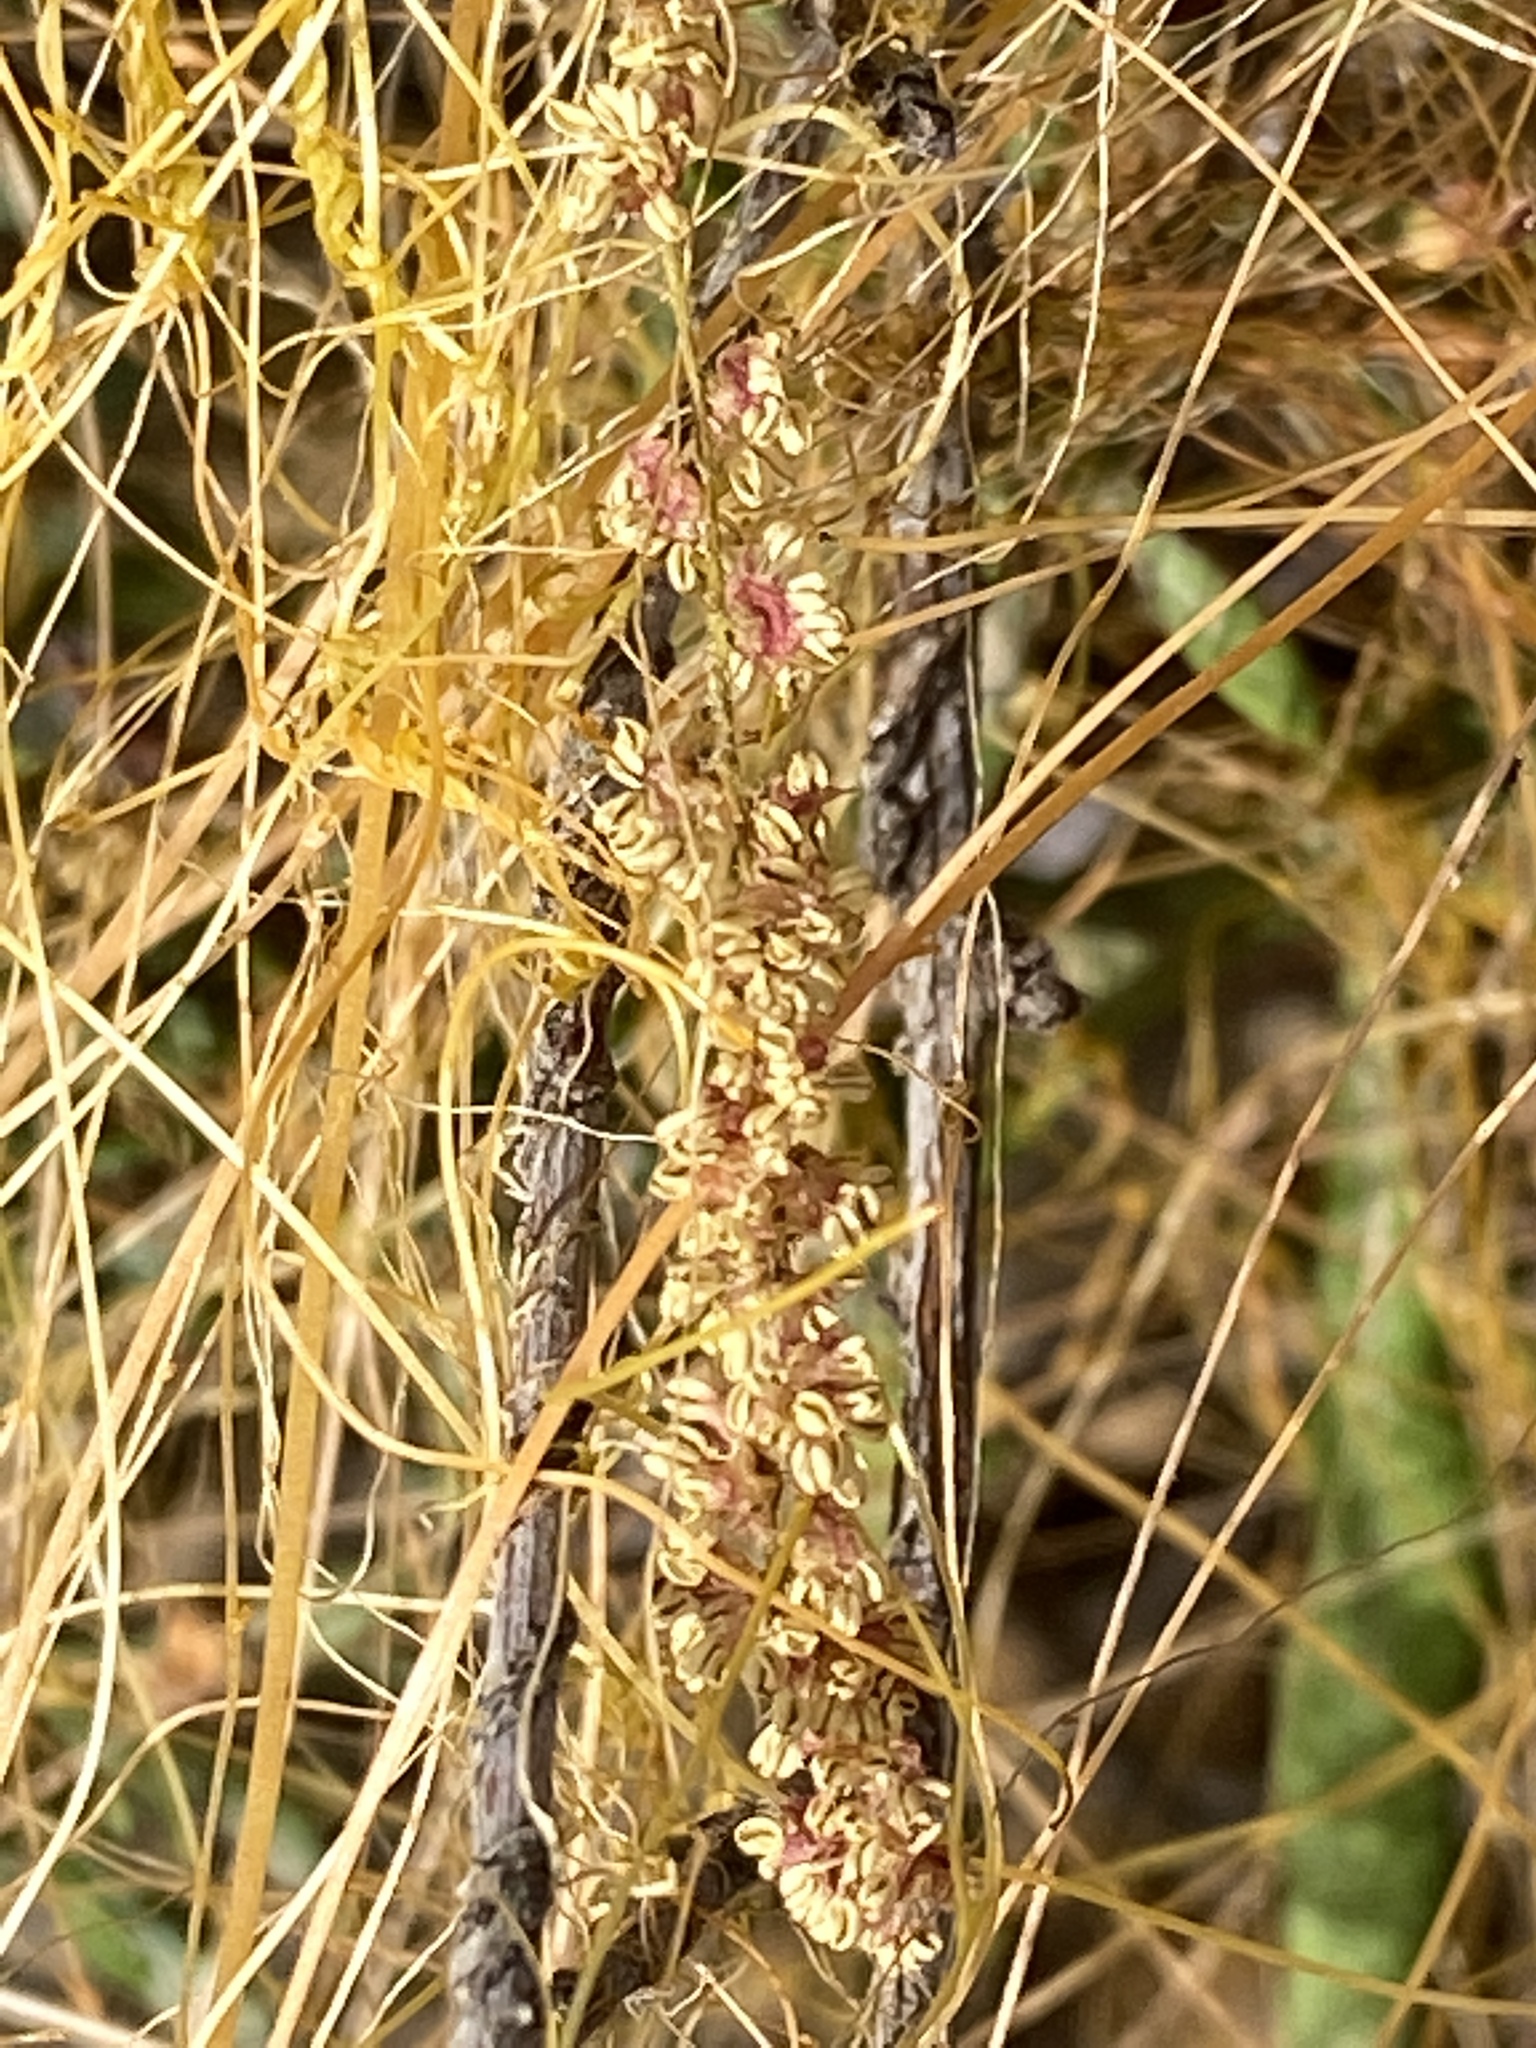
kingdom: Plantae
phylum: Tracheophyta
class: Magnoliopsida
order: Solanales
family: Convolvulaceae
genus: Cuscuta
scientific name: Cuscuta californica
